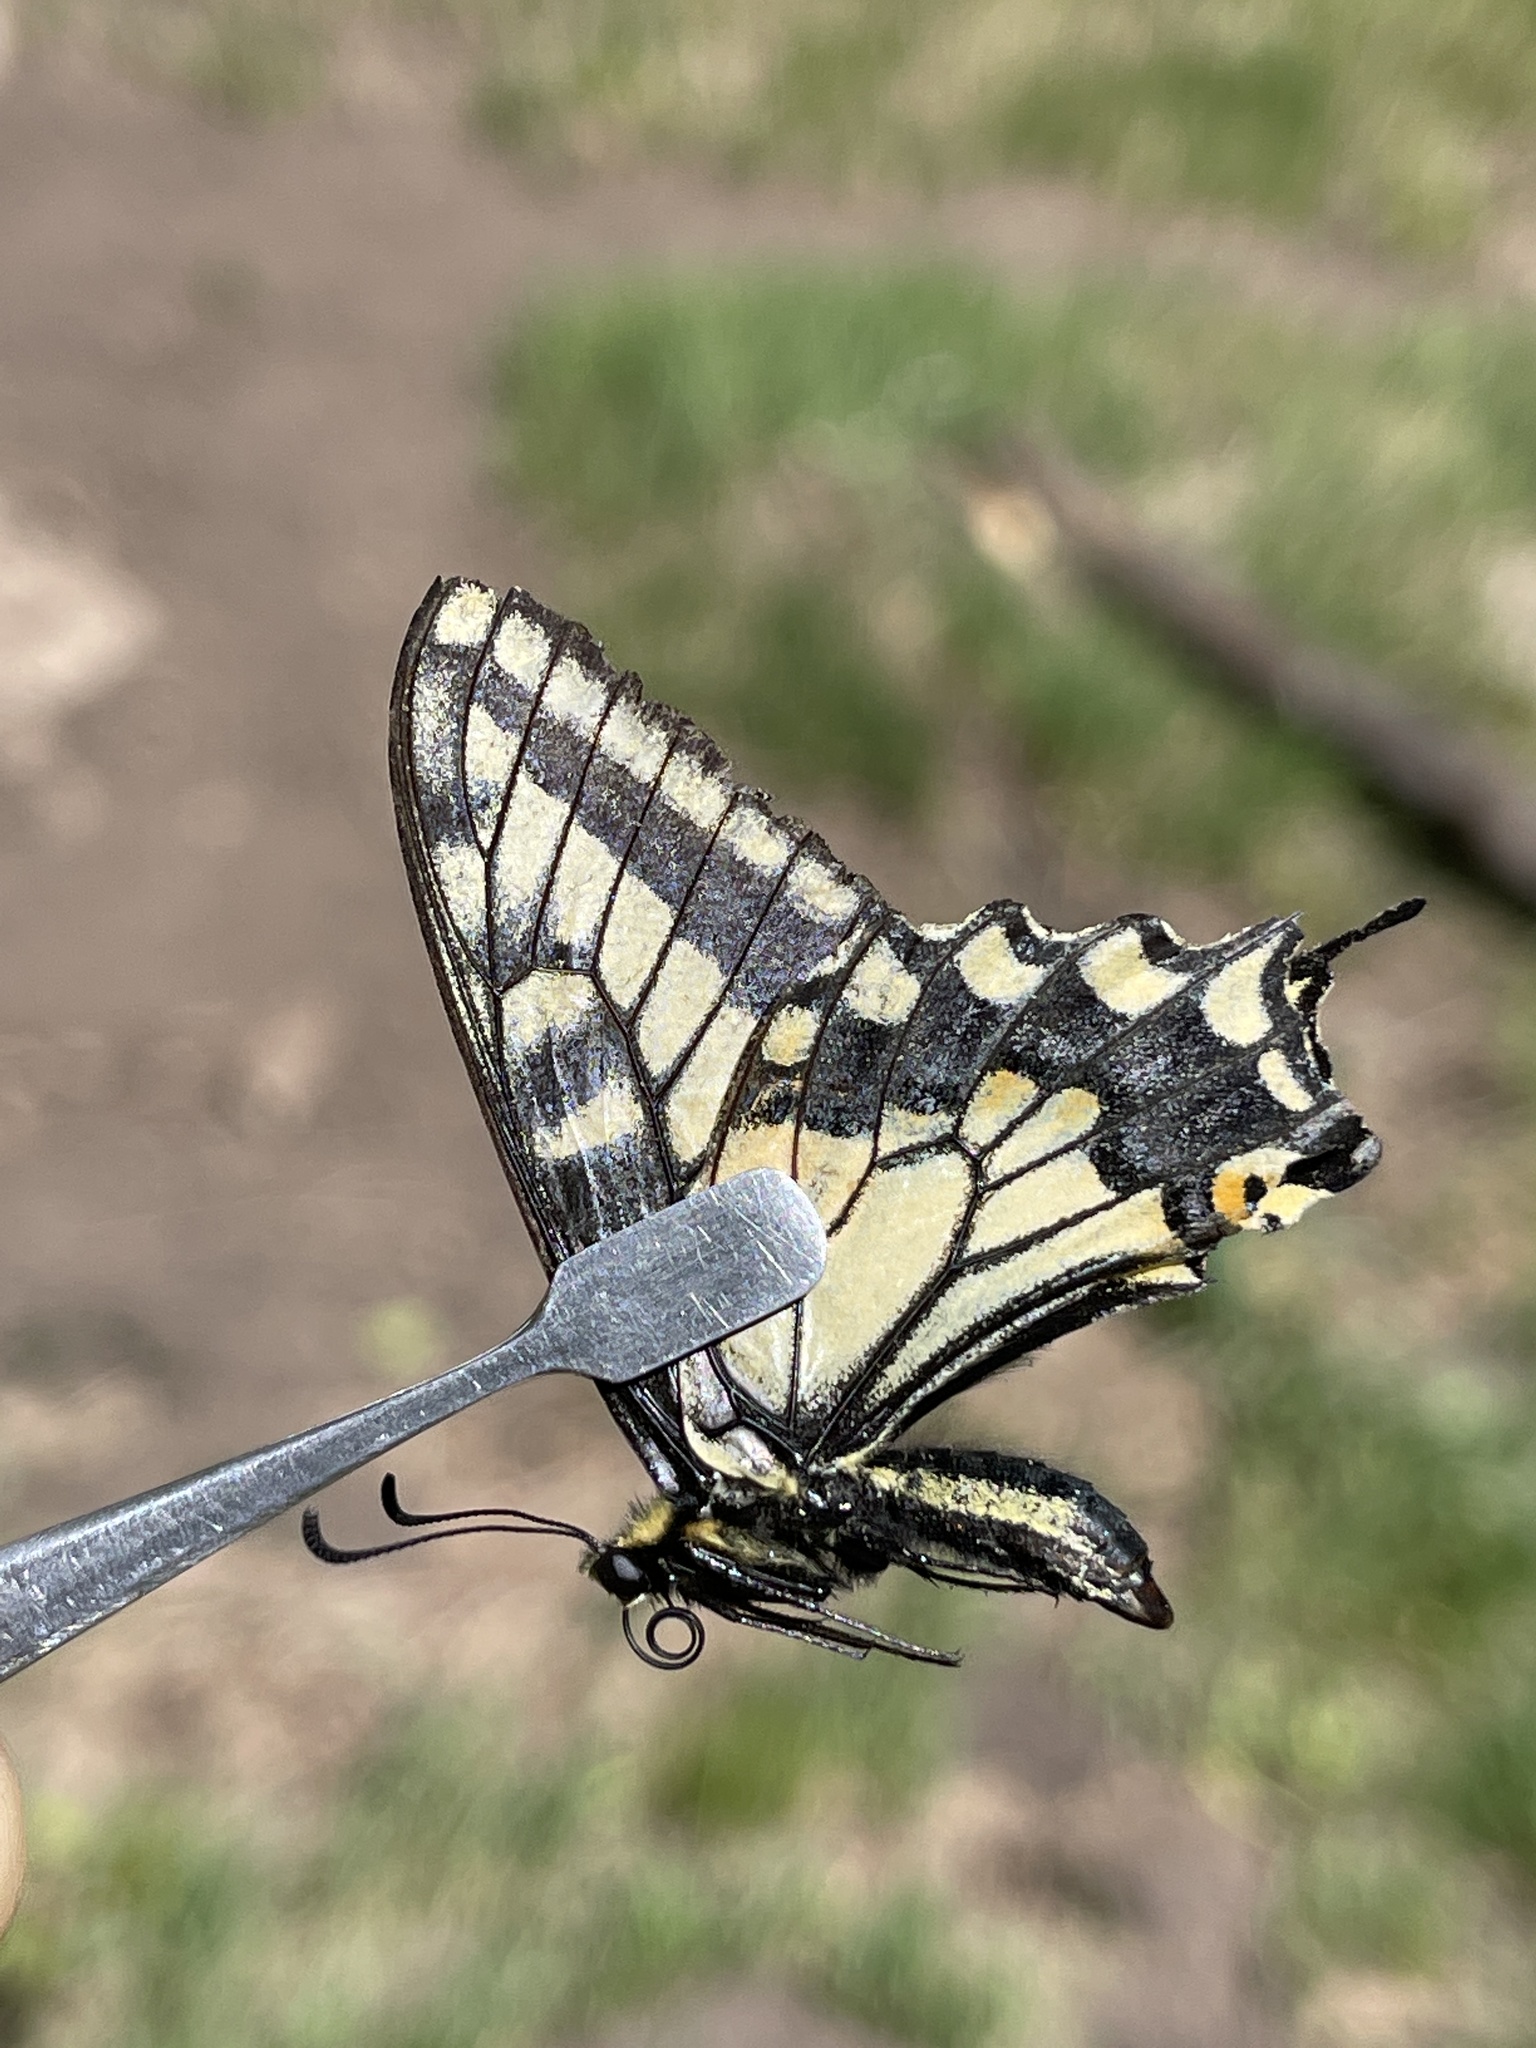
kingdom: Animalia
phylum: Arthropoda
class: Insecta
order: Lepidoptera
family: Papilionidae
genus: Papilio
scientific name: Papilio zelicaon
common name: Anise swallowtail
